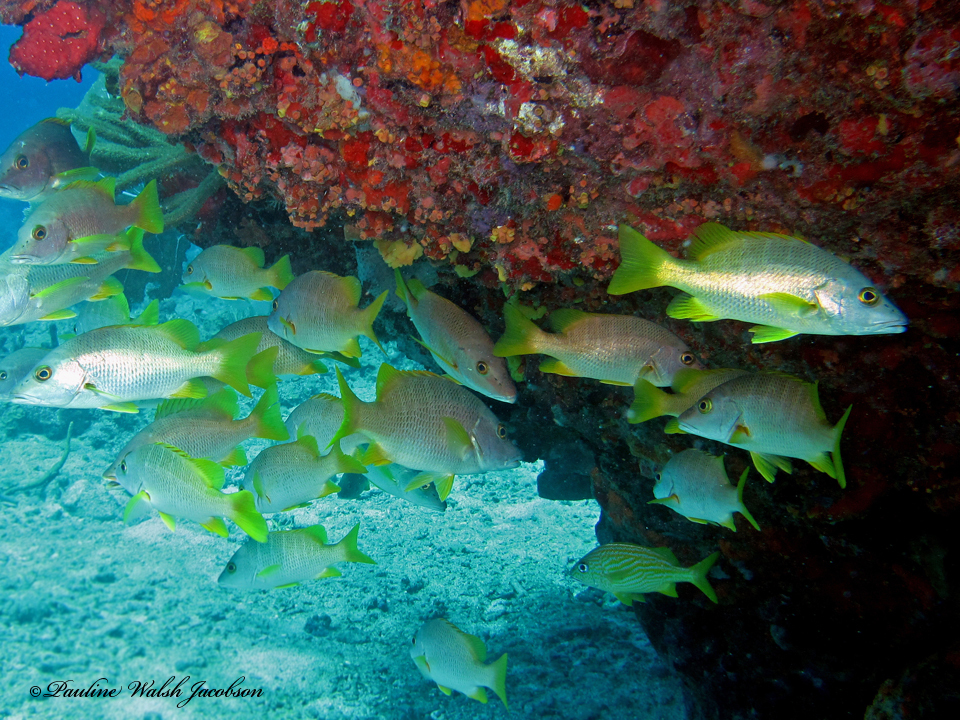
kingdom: Animalia
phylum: Chordata
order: Perciformes
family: Lutjanidae
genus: Lutjanus
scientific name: Lutjanus apodus
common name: Schoolmaster
